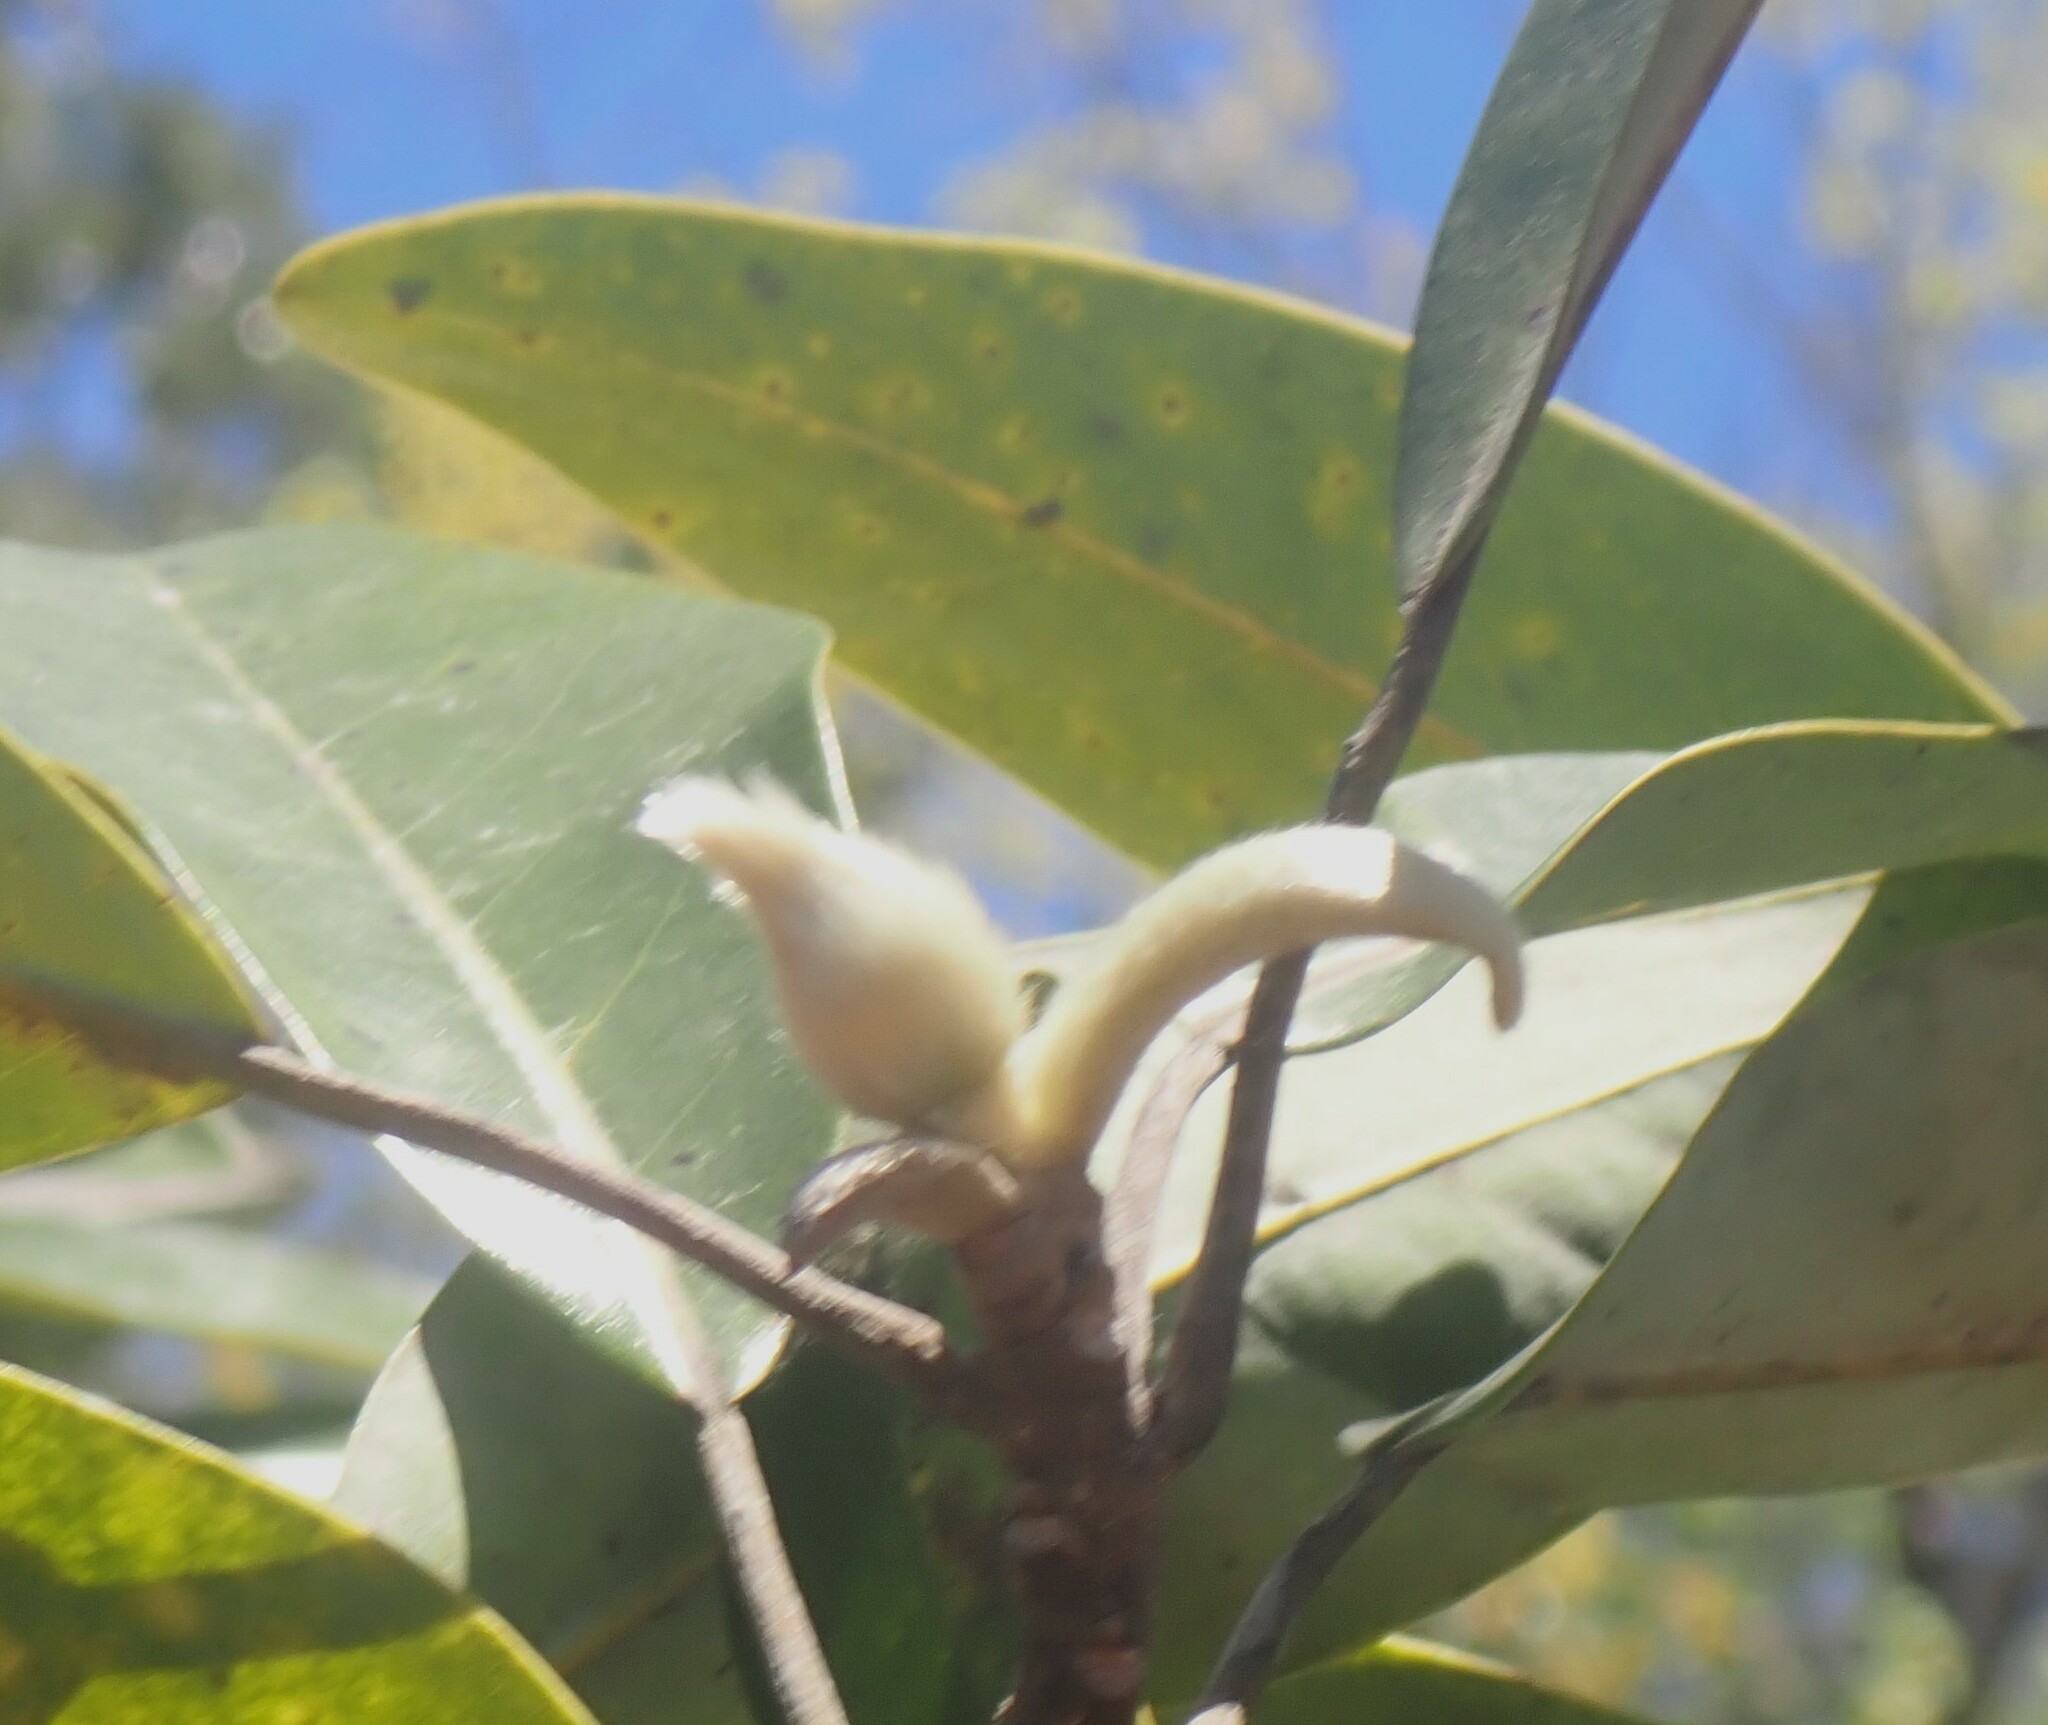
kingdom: Plantae
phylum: Tracheophyta
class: Magnoliopsida
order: Magnoliales
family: Magnoliaceae
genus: Magnolia
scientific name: Magnolia virginiana
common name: Swamp bay
